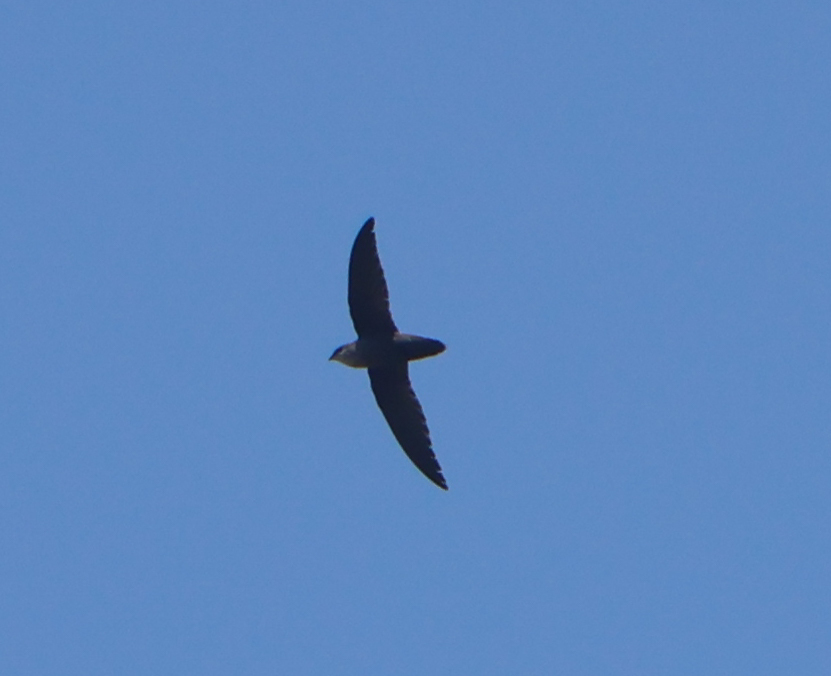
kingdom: Animalia
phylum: Chordata
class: Aves
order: Apodiformes
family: Apodidae
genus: Chaetura
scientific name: Chaetura pelagica
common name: Chimney swift
